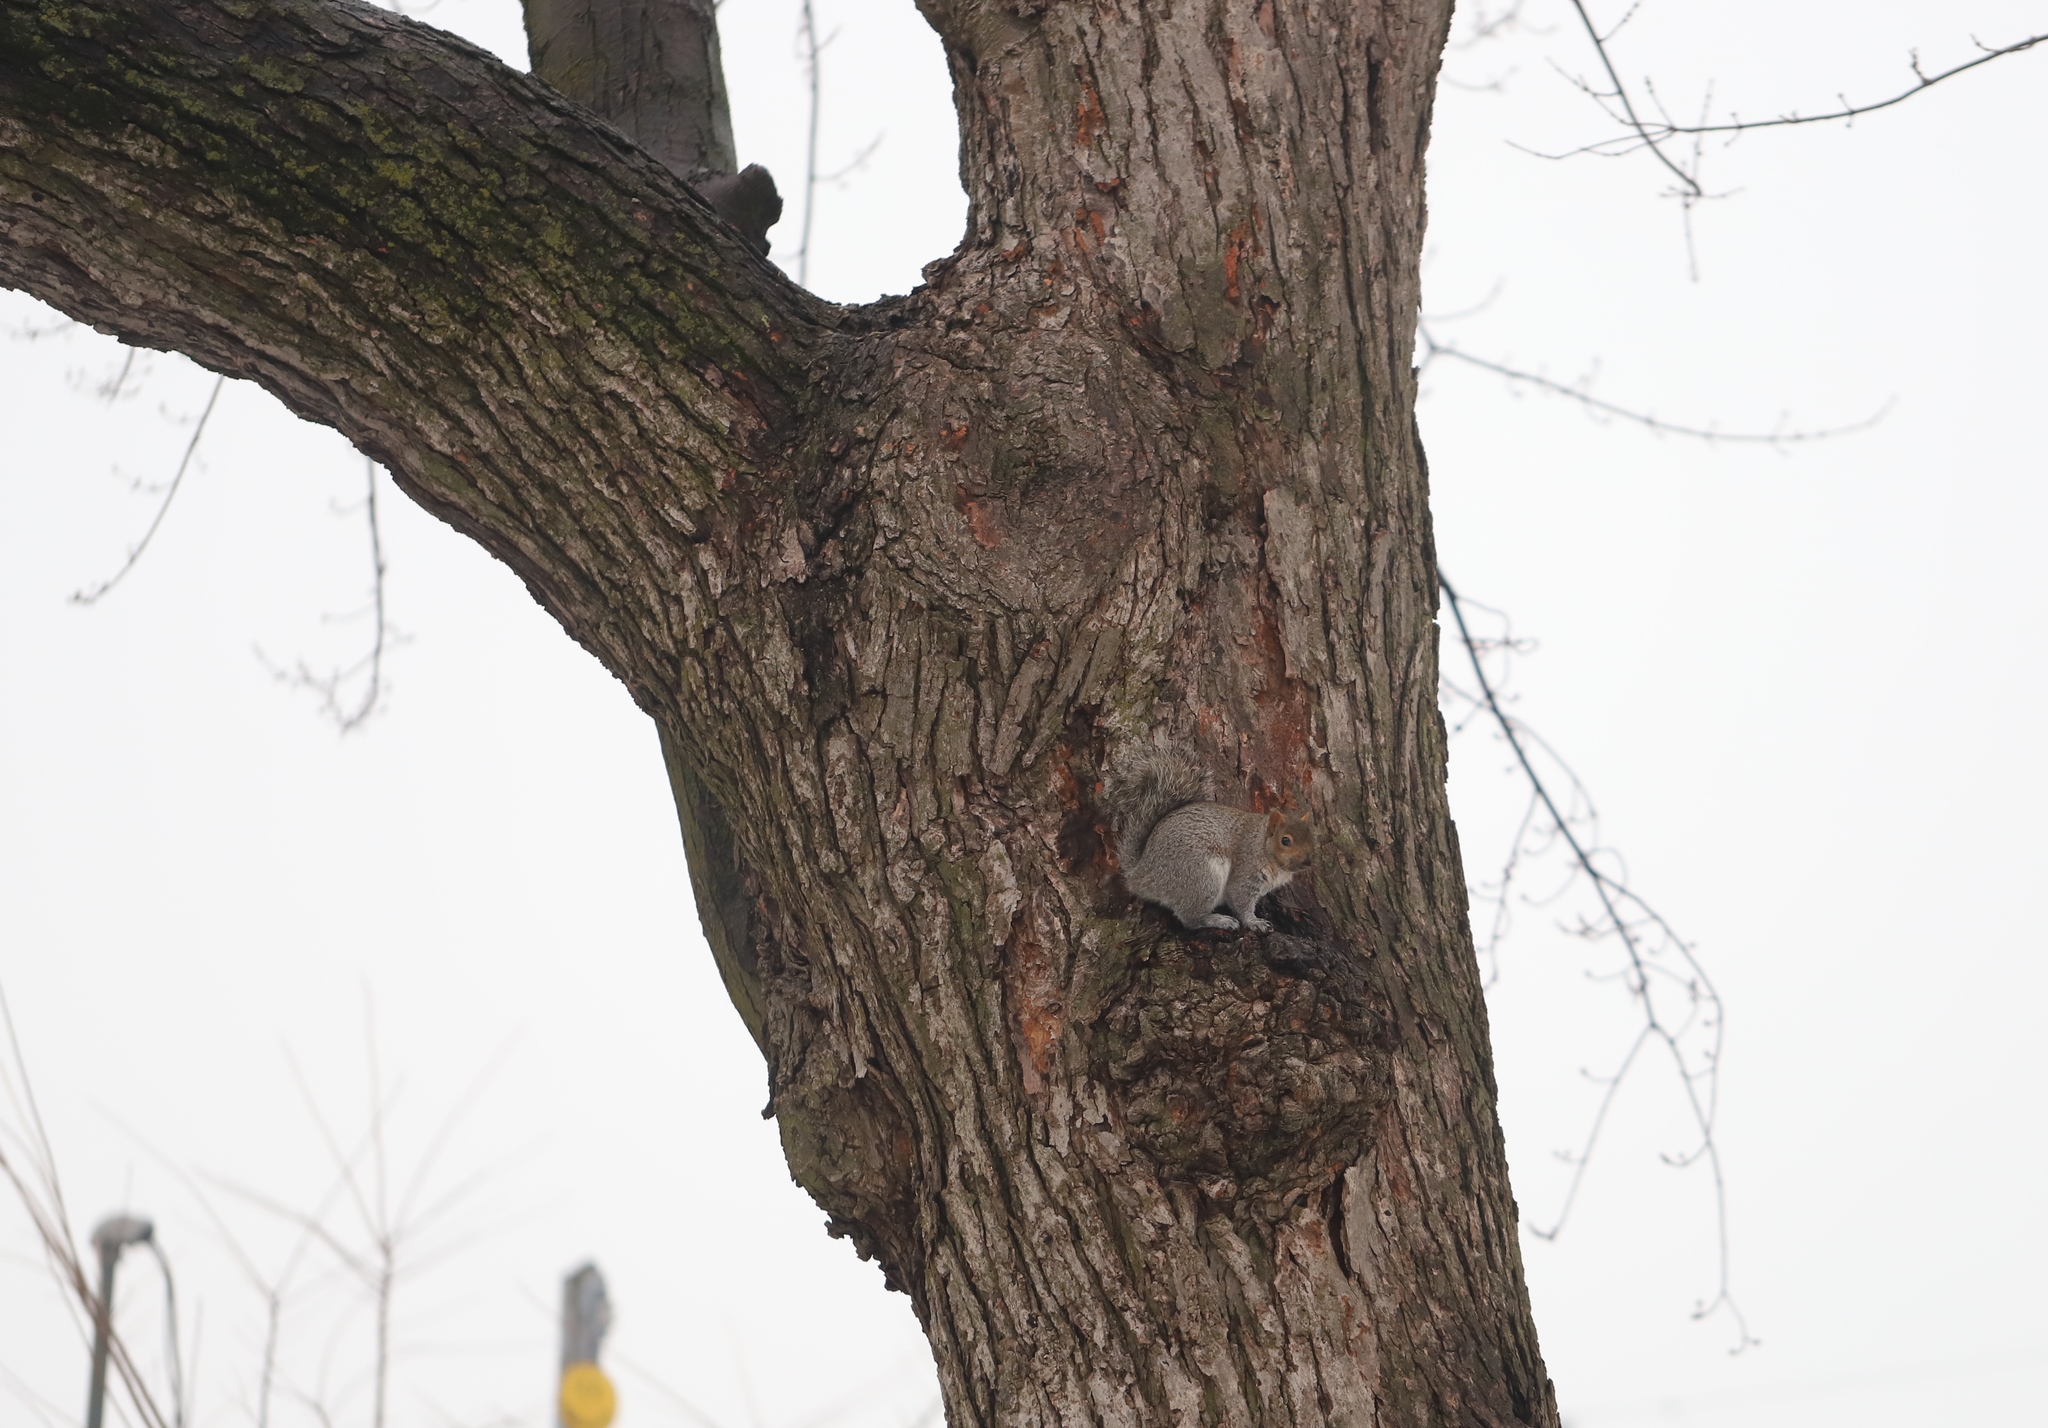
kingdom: Animalia
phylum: Chordata
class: Mammalia
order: Rodentia
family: Sciuridae
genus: Sciurus
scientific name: Sciurus carolinensis
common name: Eastern gray squirrel
